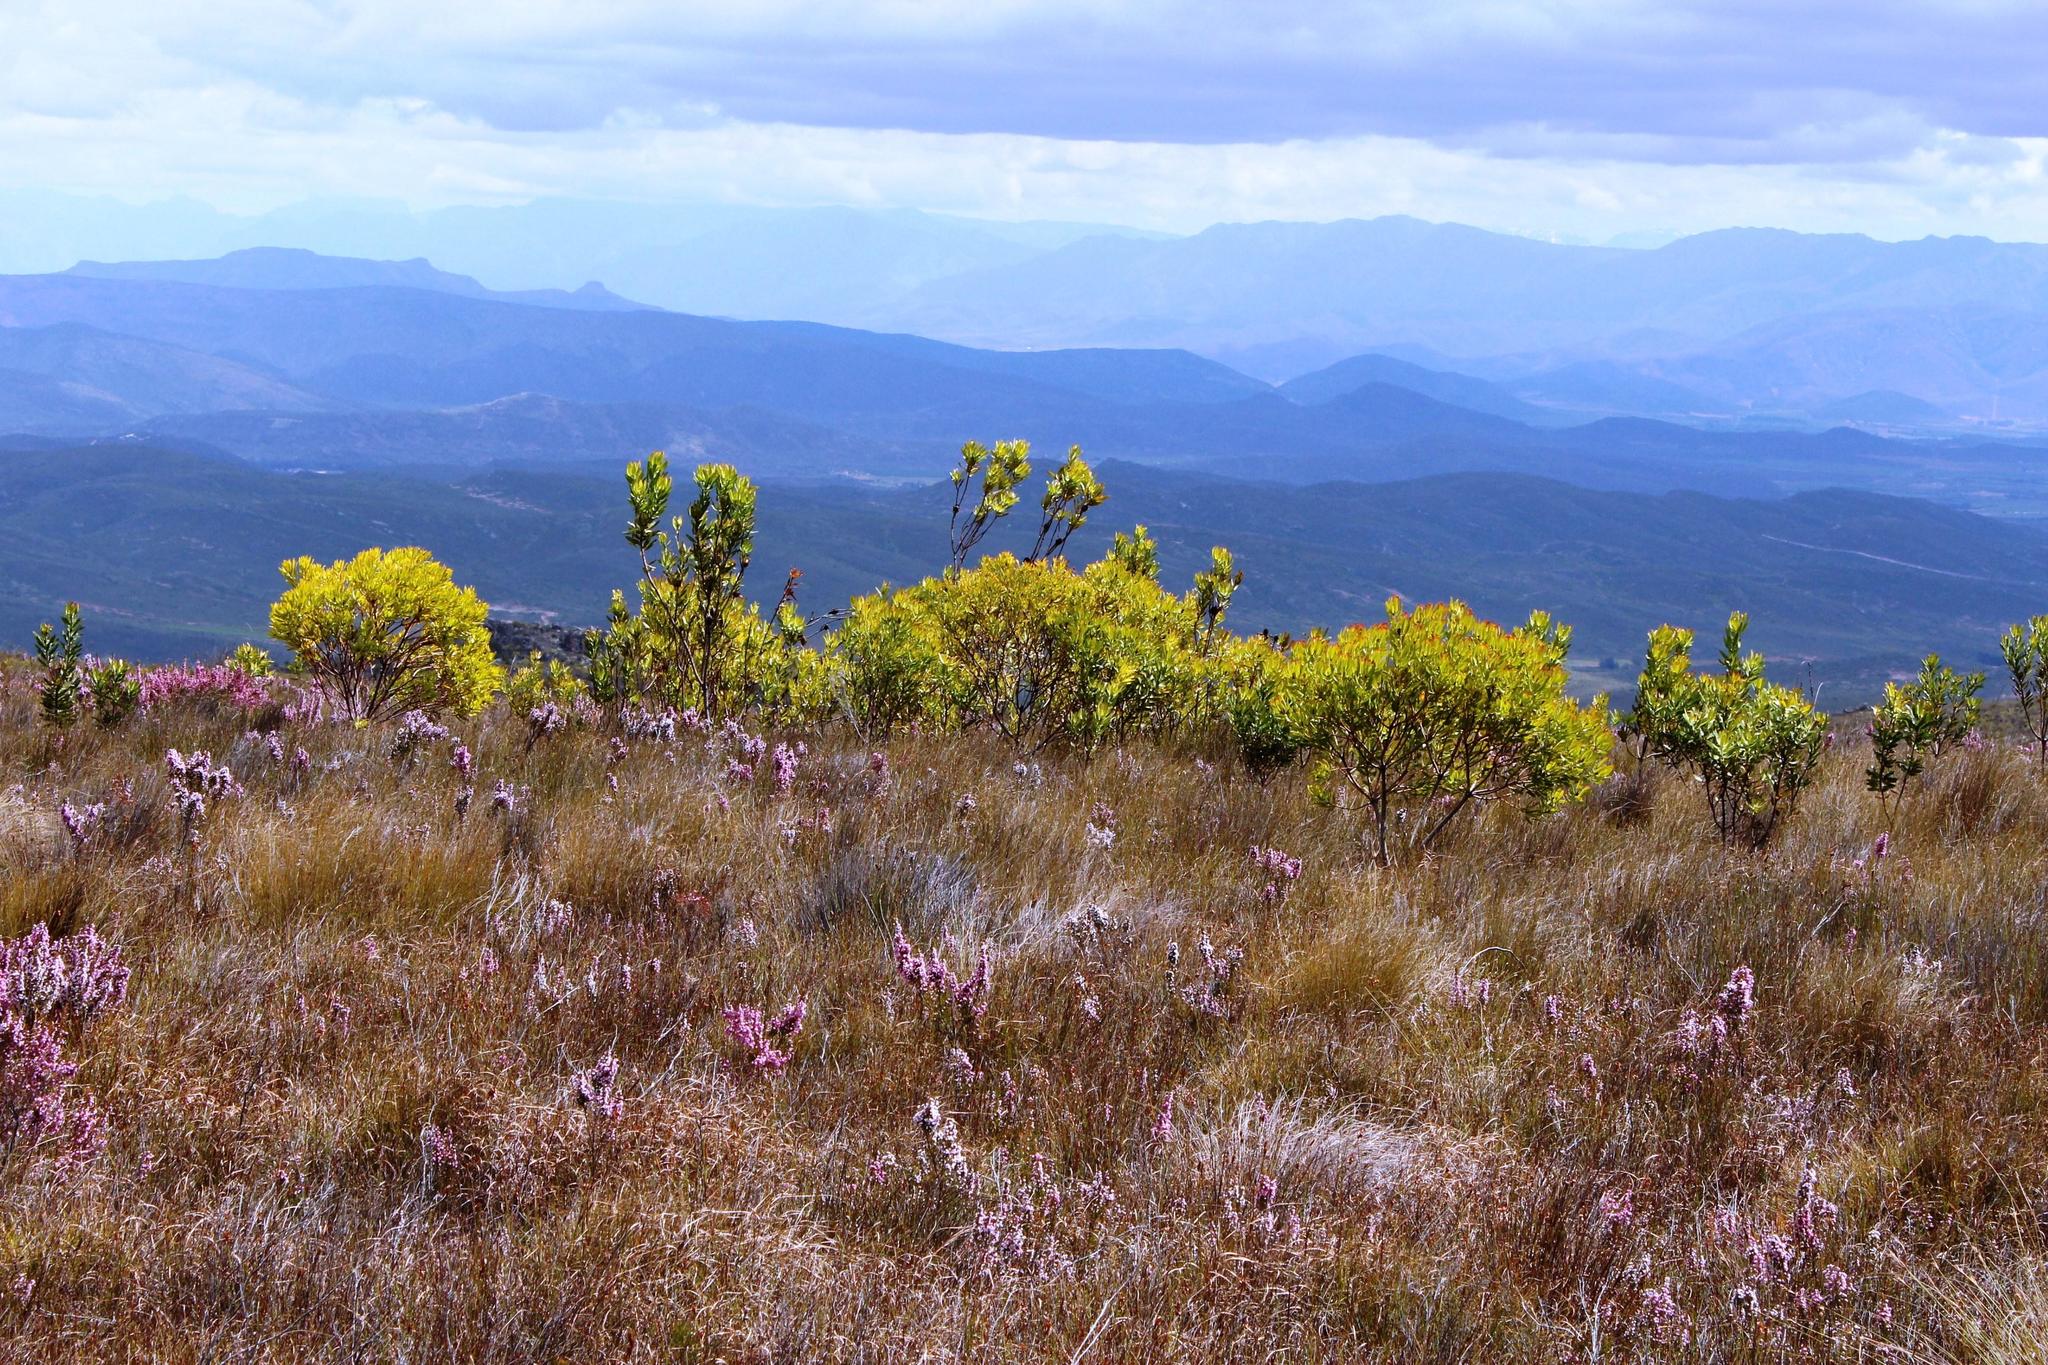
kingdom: Plantae
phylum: Tracheophyta
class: Magnoliopsida
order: Proteales
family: Proteaceae
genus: Leucadendron
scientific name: Leucadendron microcephalum
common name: Oilbract conebush
